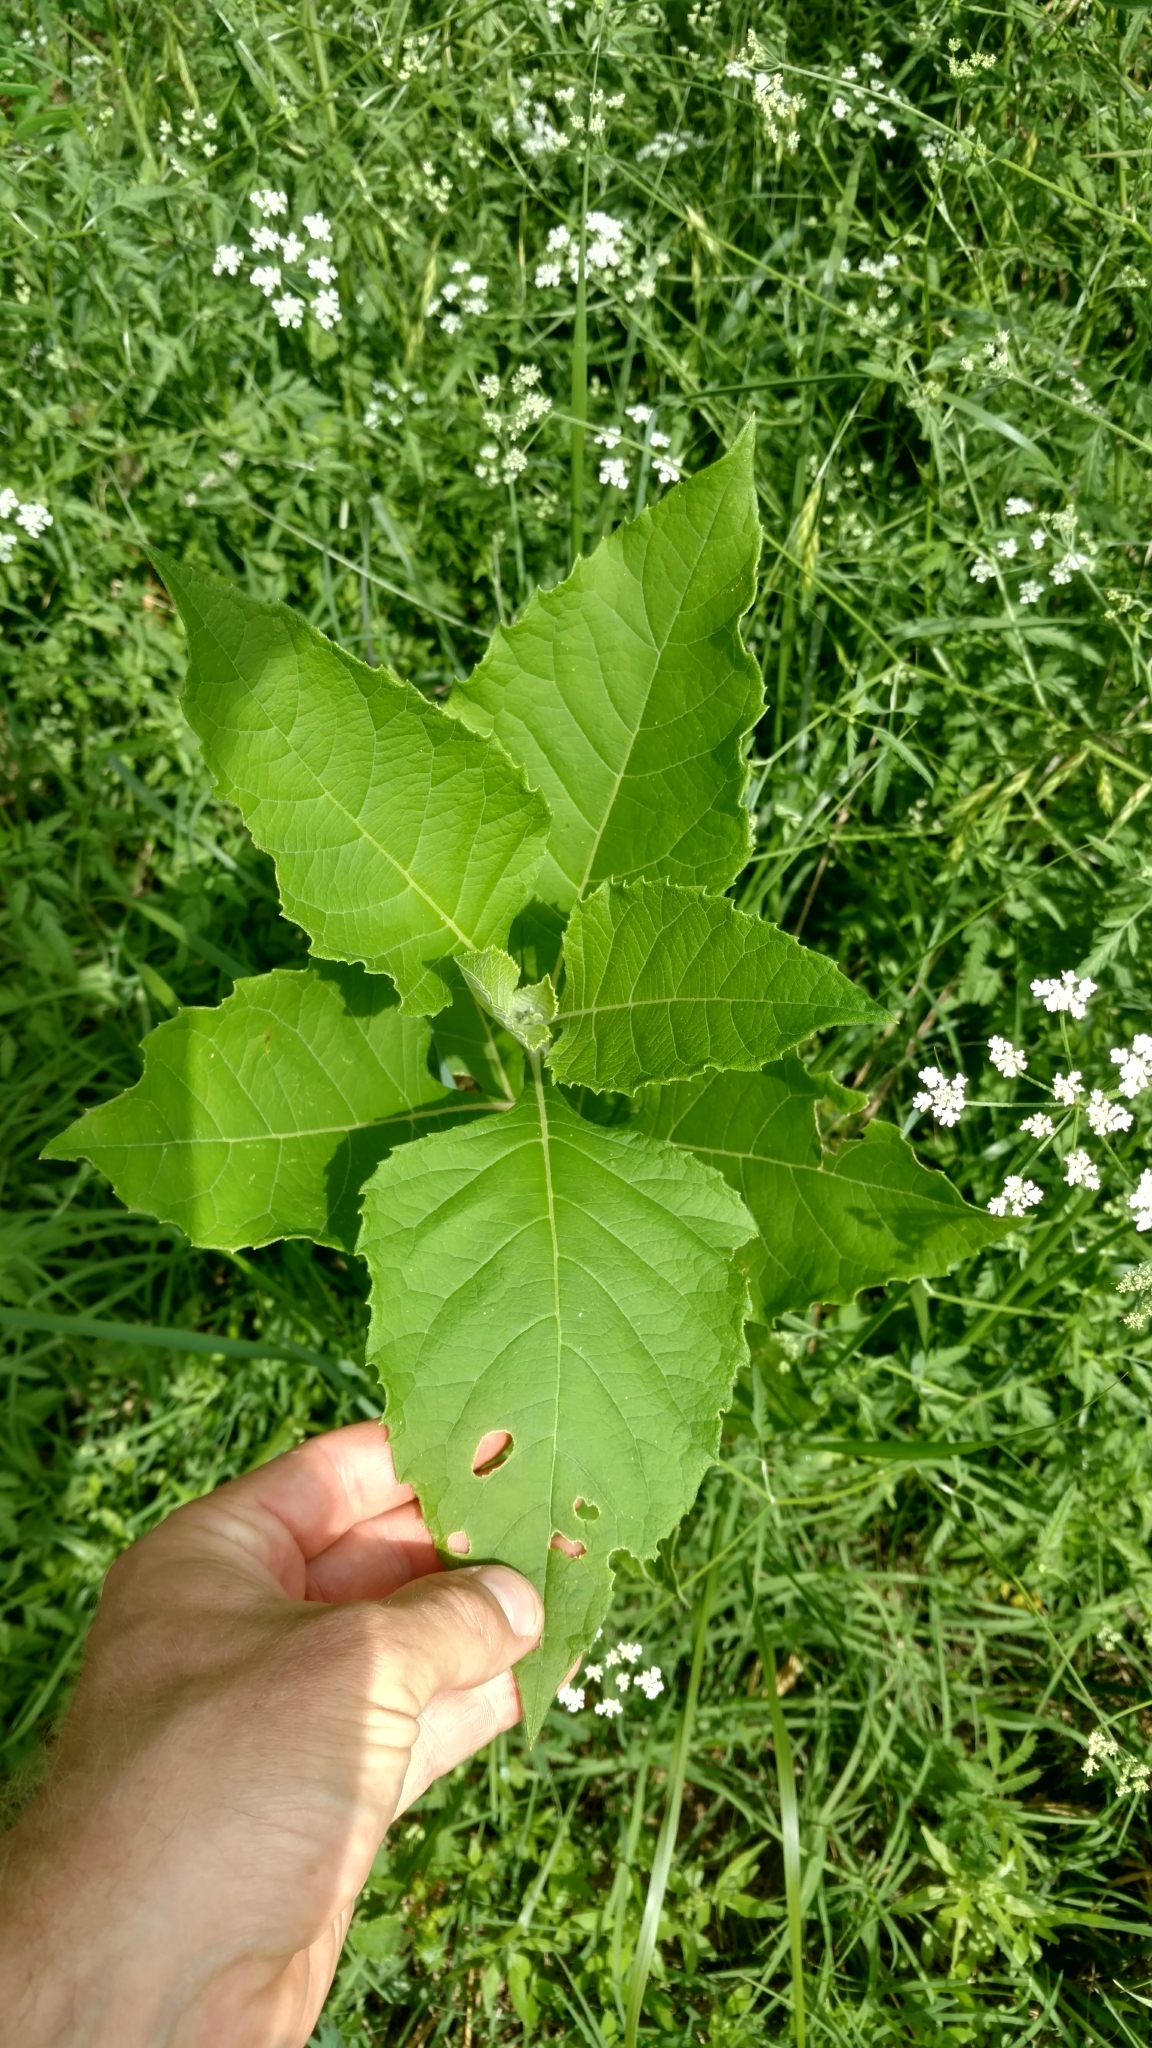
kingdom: Plantae
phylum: Tracheophyta
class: Magnoliopsida
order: Asterales
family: Asteraceae
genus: Verbesina
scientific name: Verbesina virginica
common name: Frostweed
